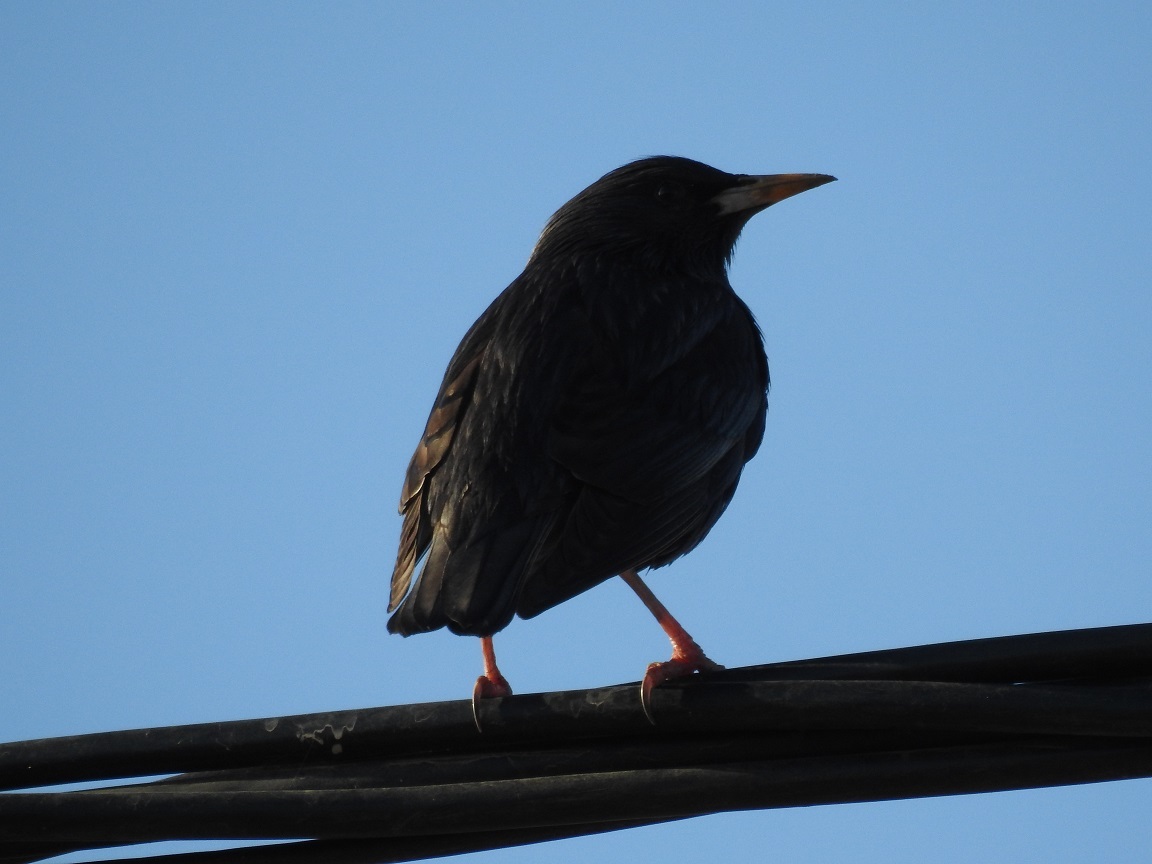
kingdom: Animalia
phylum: Chordata
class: Aves
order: Passeriformes
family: Sturnidae
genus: Sturnus
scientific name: Sturnus unicolor
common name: Spotless starling
